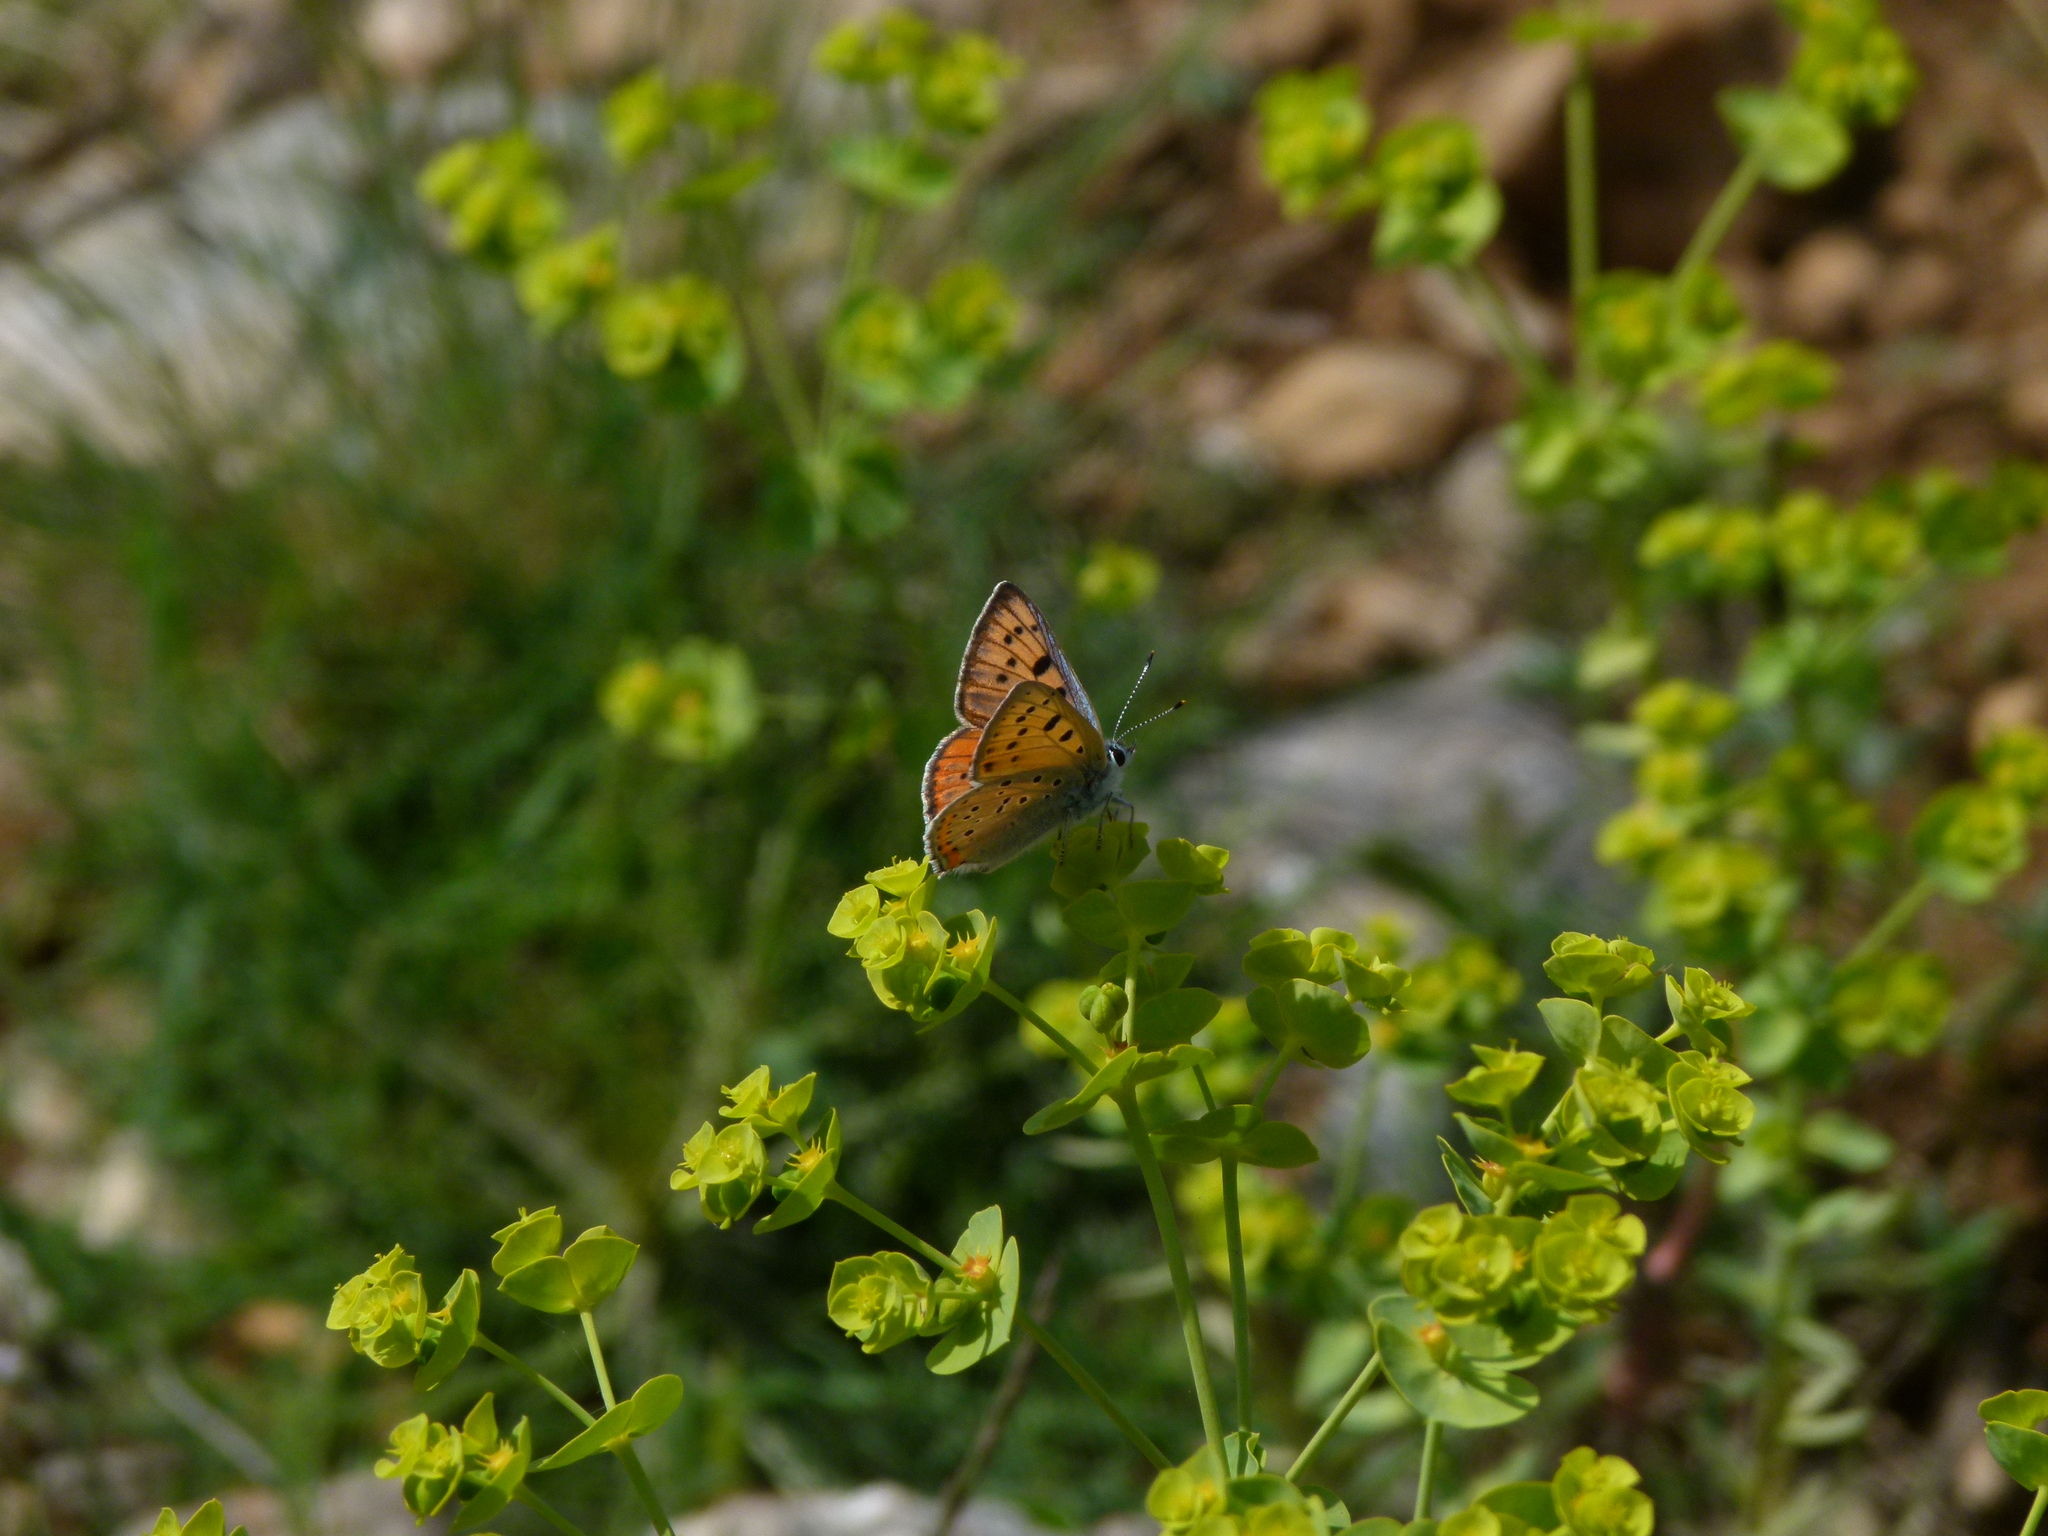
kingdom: Animalia
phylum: Arthropoda
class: Insecta
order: Lepidoptera
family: Lycaenidae
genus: Lycaena
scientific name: Lycaena alciphron
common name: Purple-shot copper
